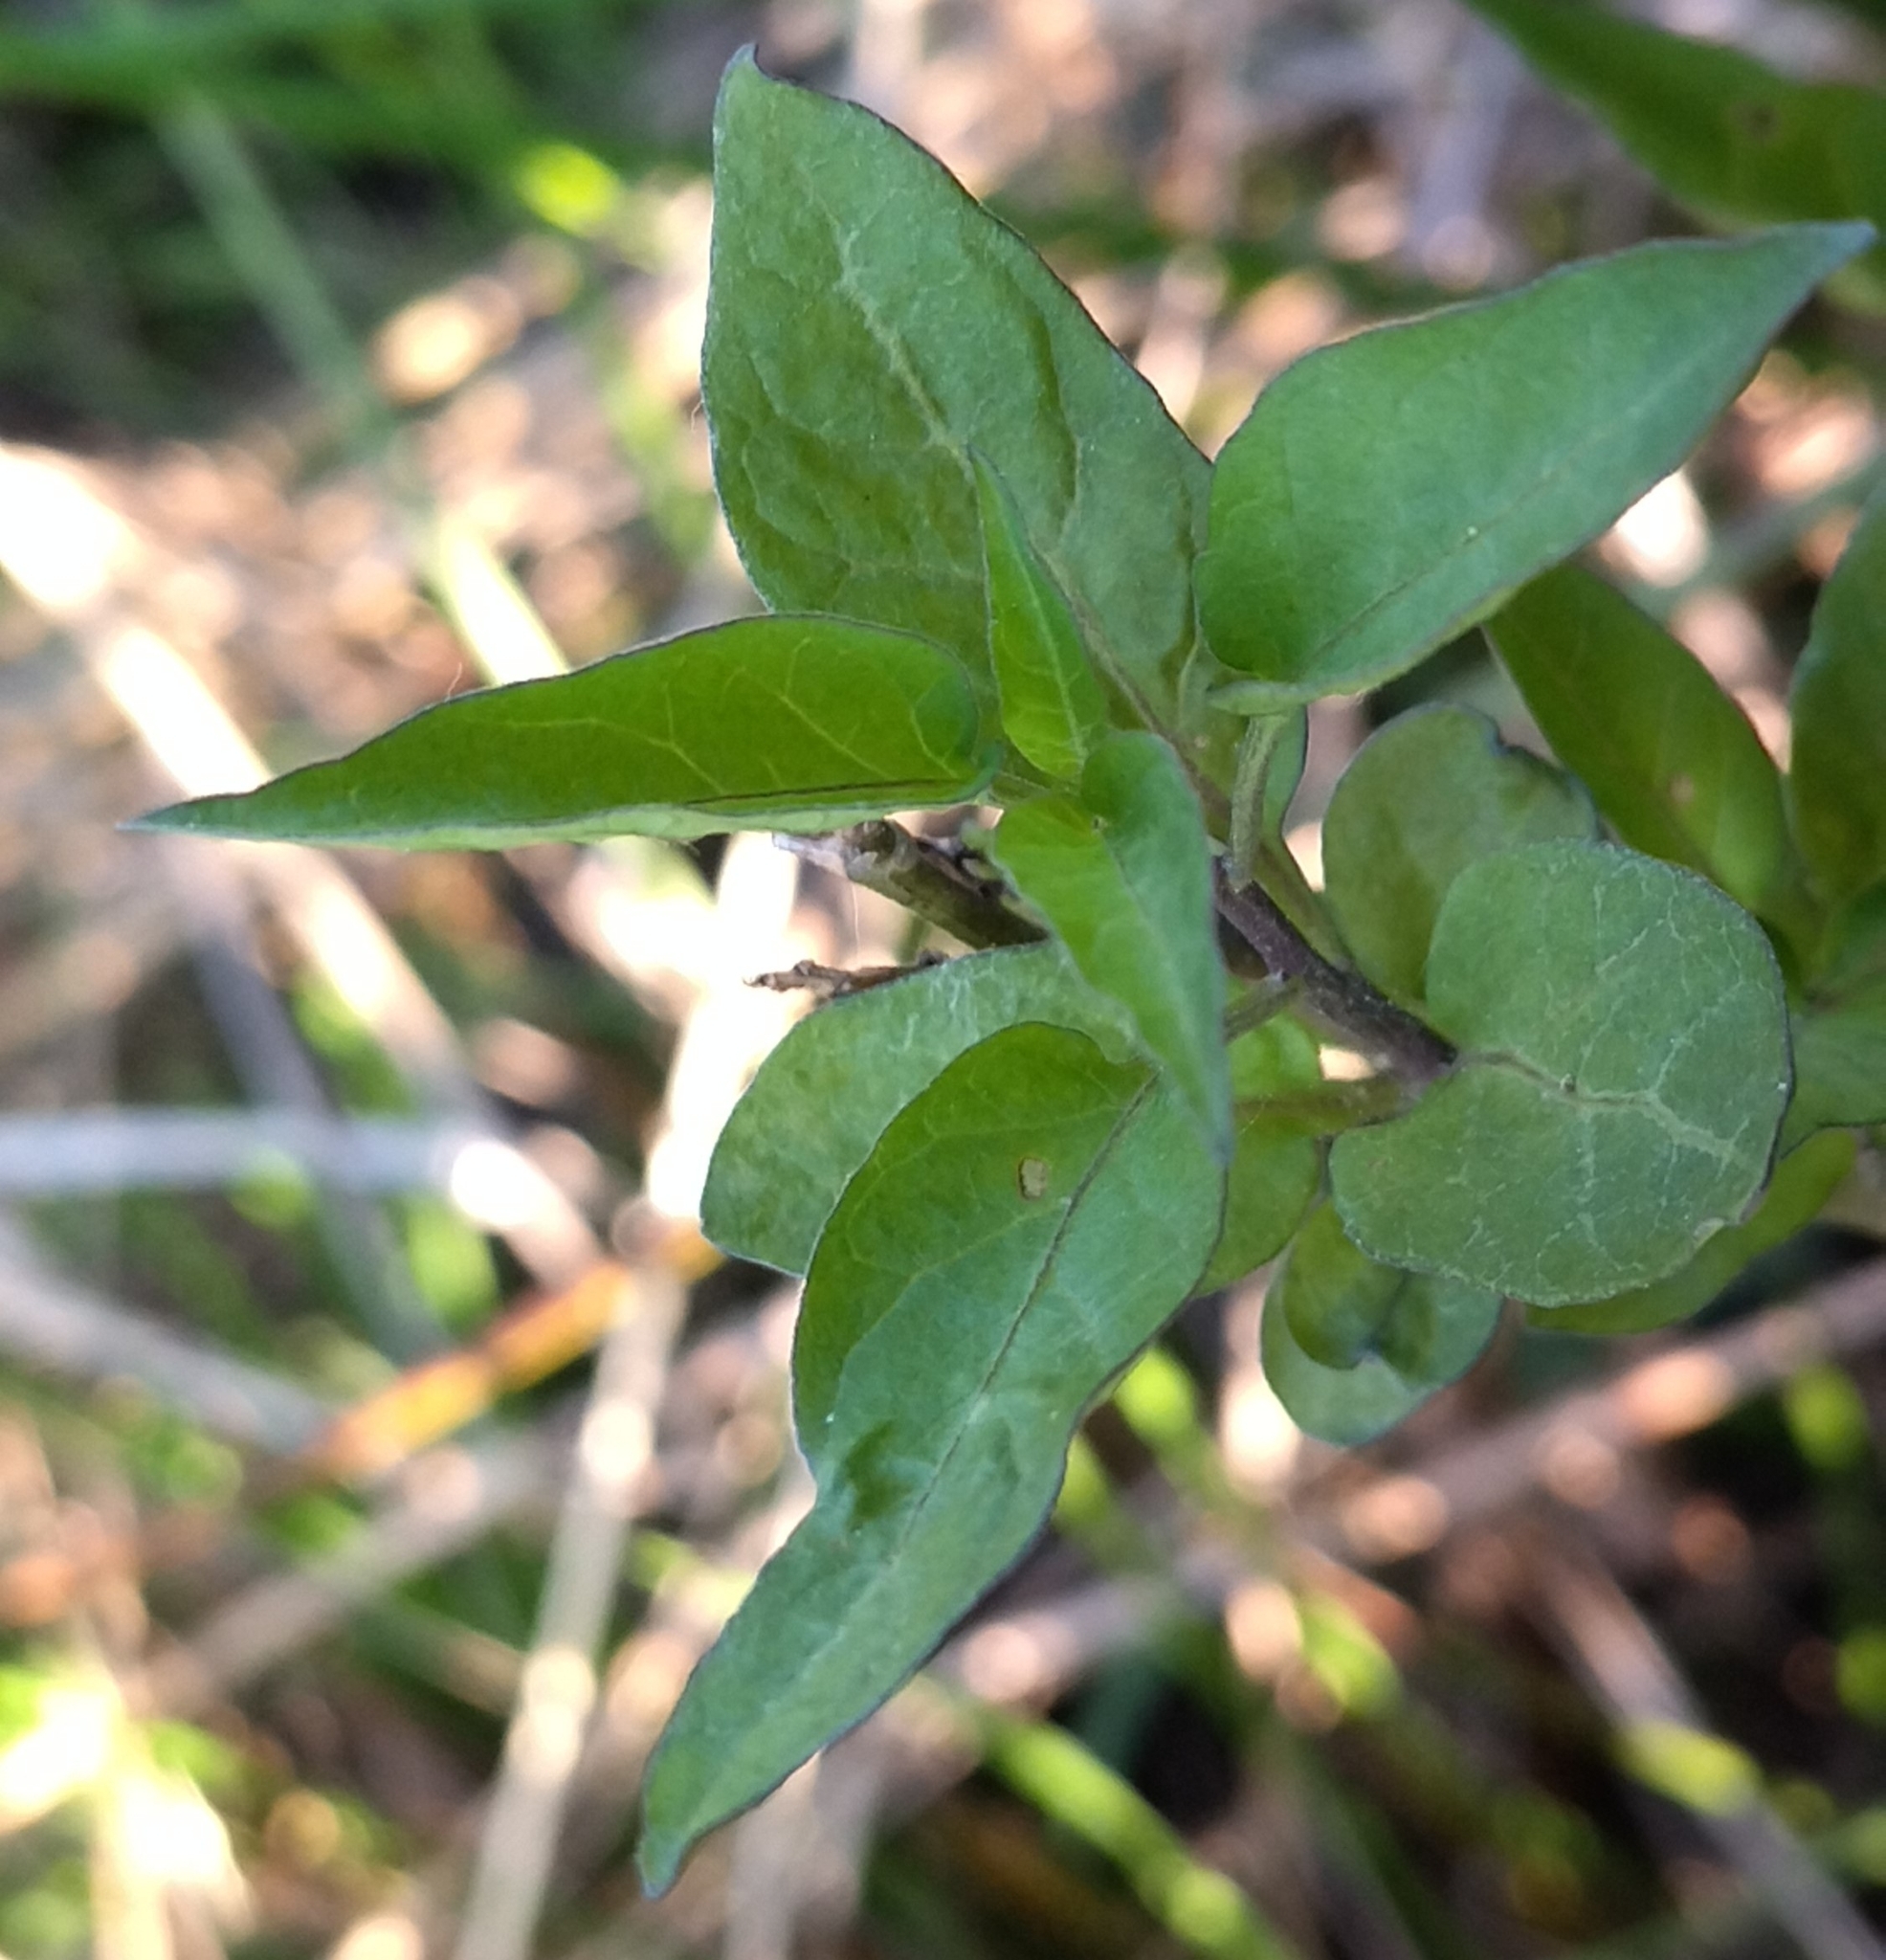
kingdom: Plantae
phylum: Tracheophyta
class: Magnoliopsida
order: Solanales
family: Solanaceae
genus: Solanum
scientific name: Solanum dulcamara
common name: Climbing nightshade
